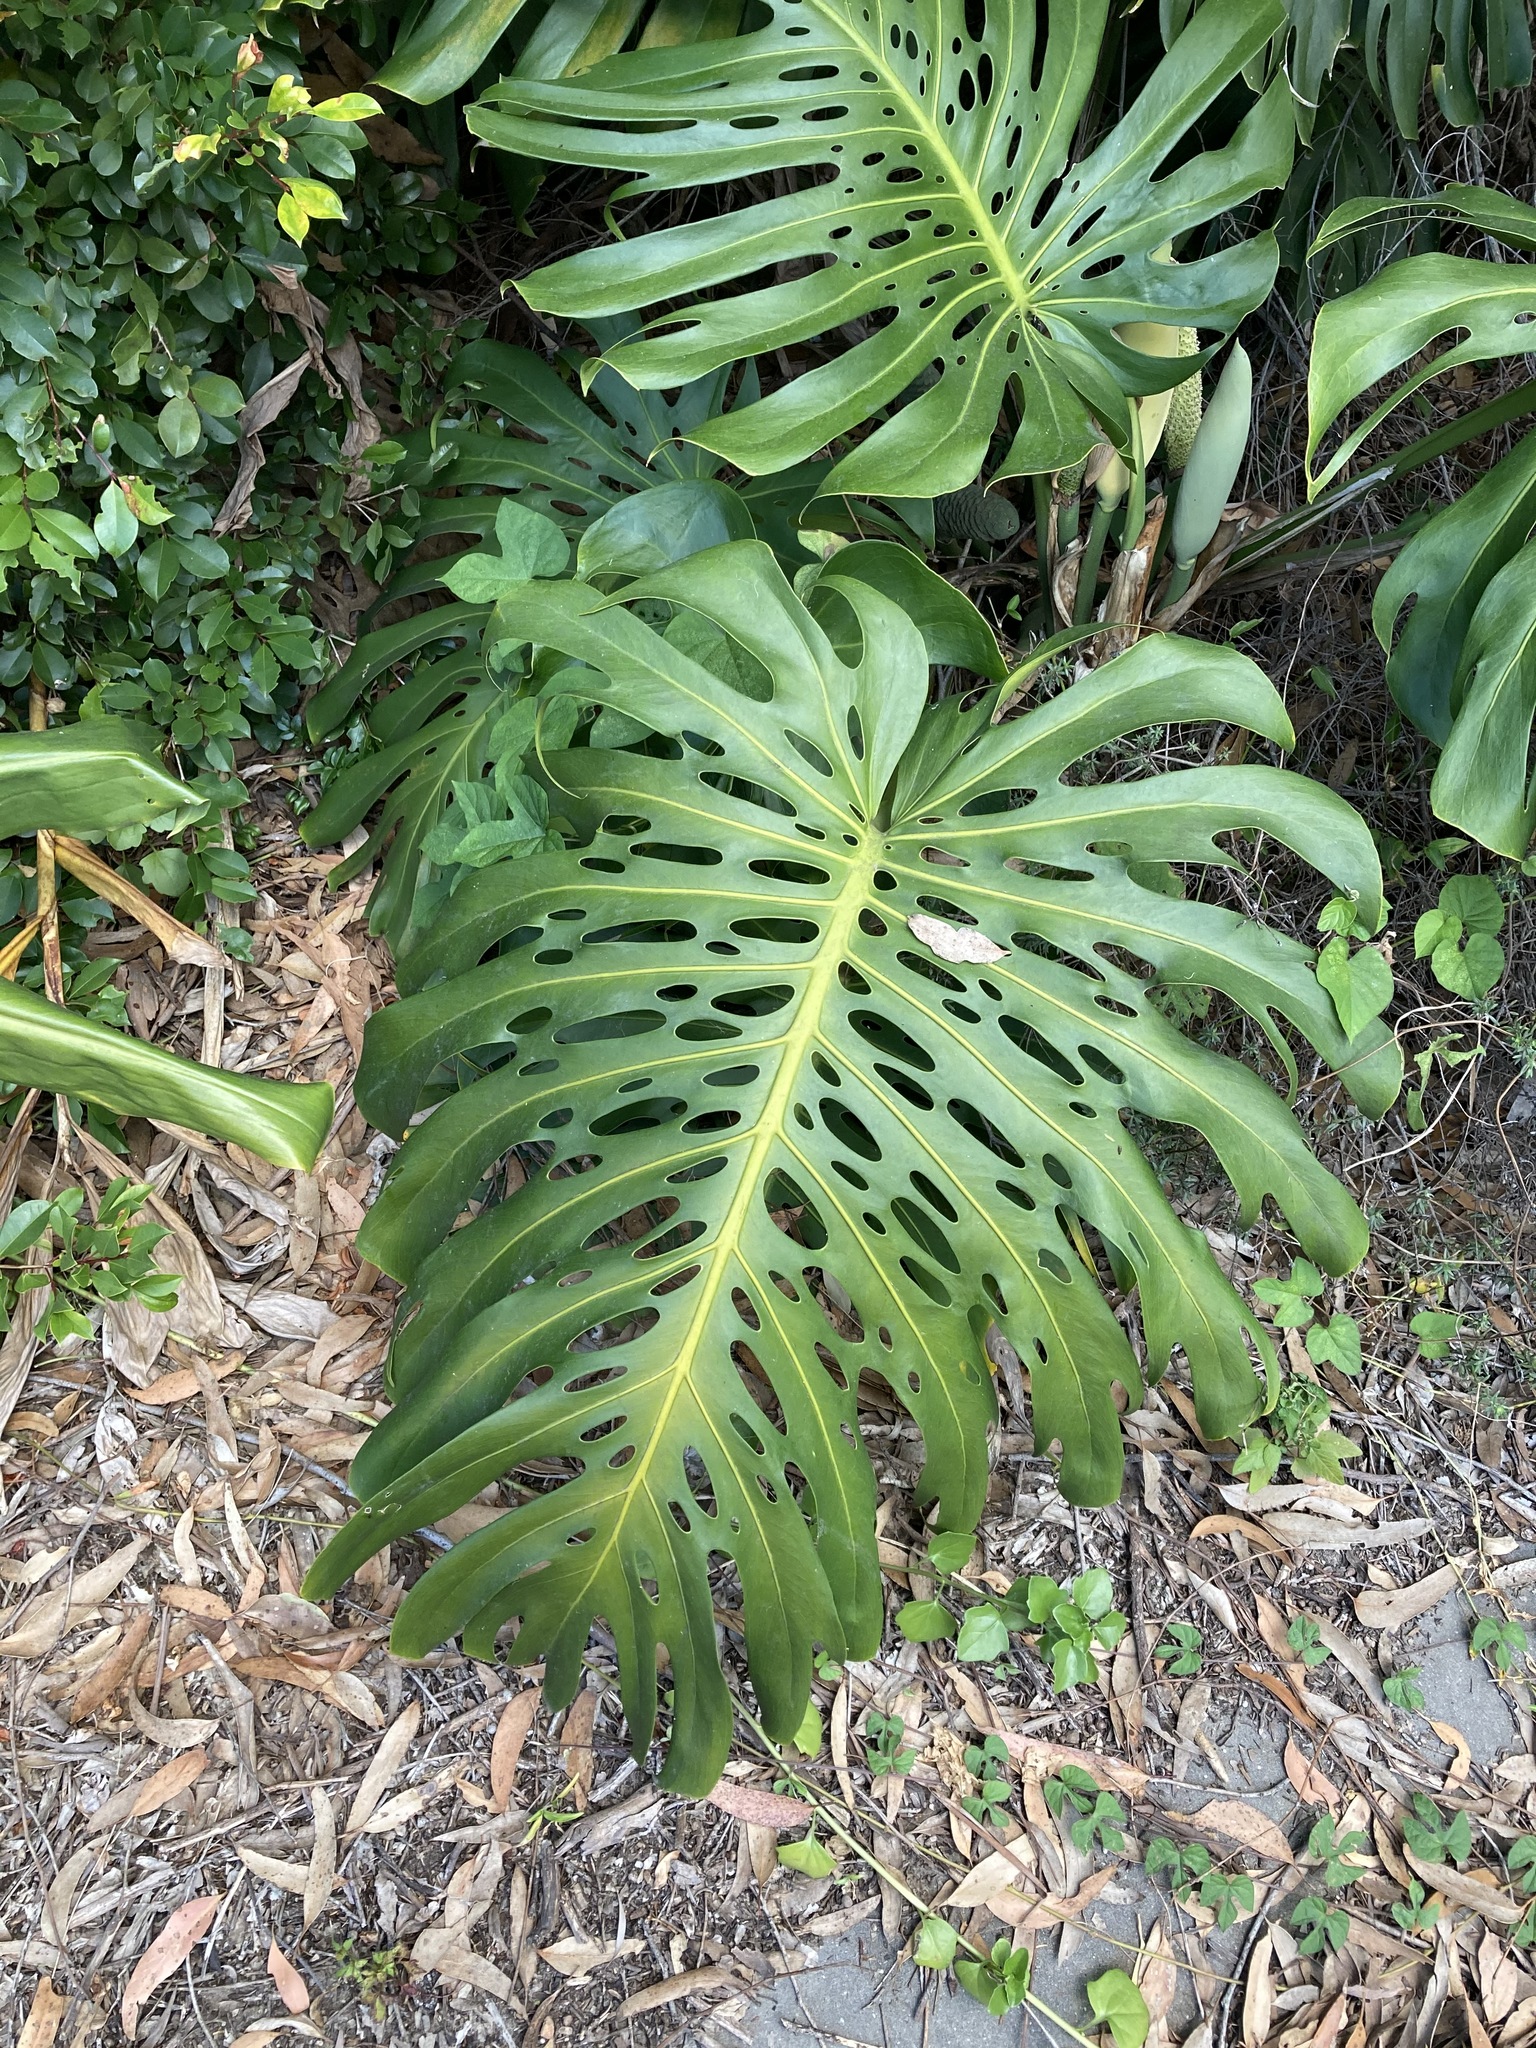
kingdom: Plantae
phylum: Tracheophyta
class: Liliopsida
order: Alismatales
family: Araceae
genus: Monstera
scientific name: Monstera deliciosa
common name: Cut-leaf-philodendron
